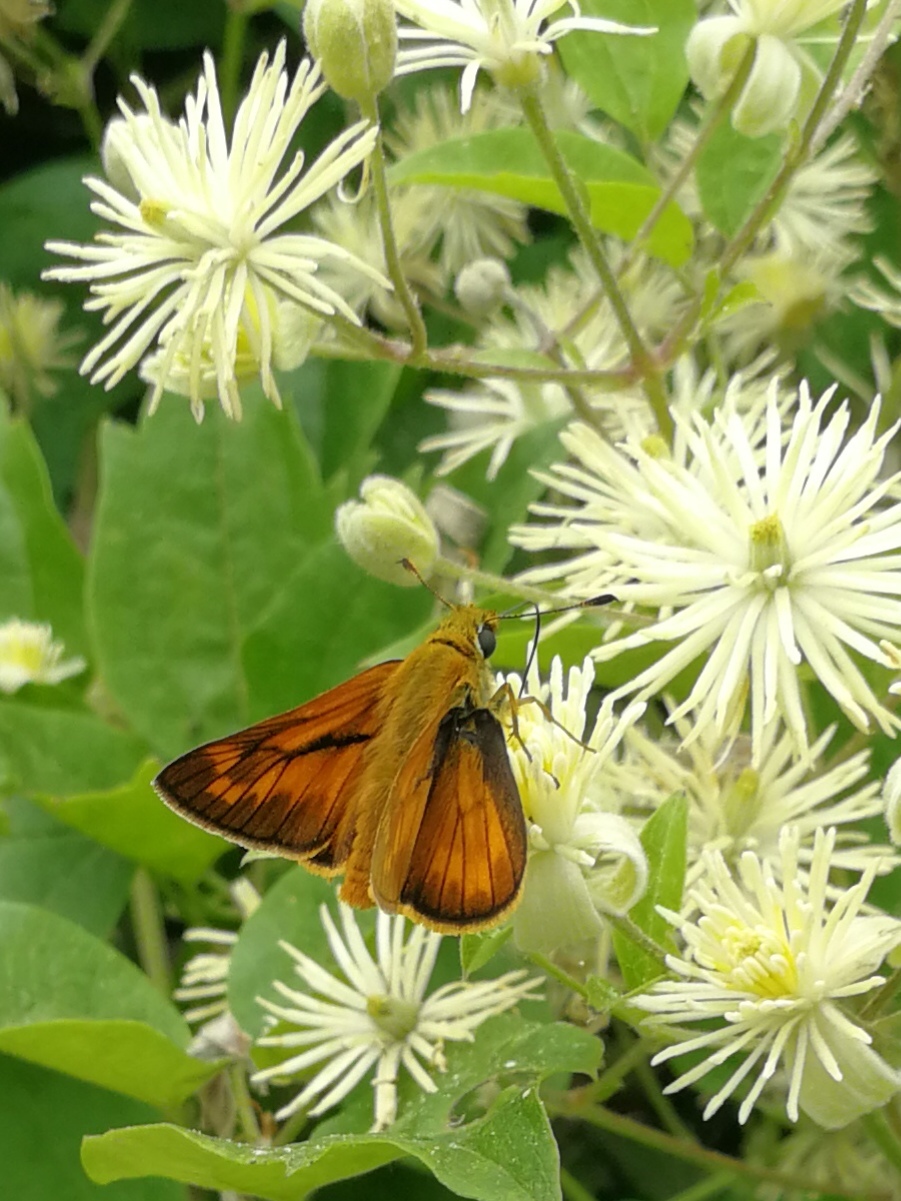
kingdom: Animalia
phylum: Arthropoda
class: Insecta
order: Lepidoptera
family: Hesperiidae
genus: Ochlodes
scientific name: Ochlodes venata
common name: Large skipper
